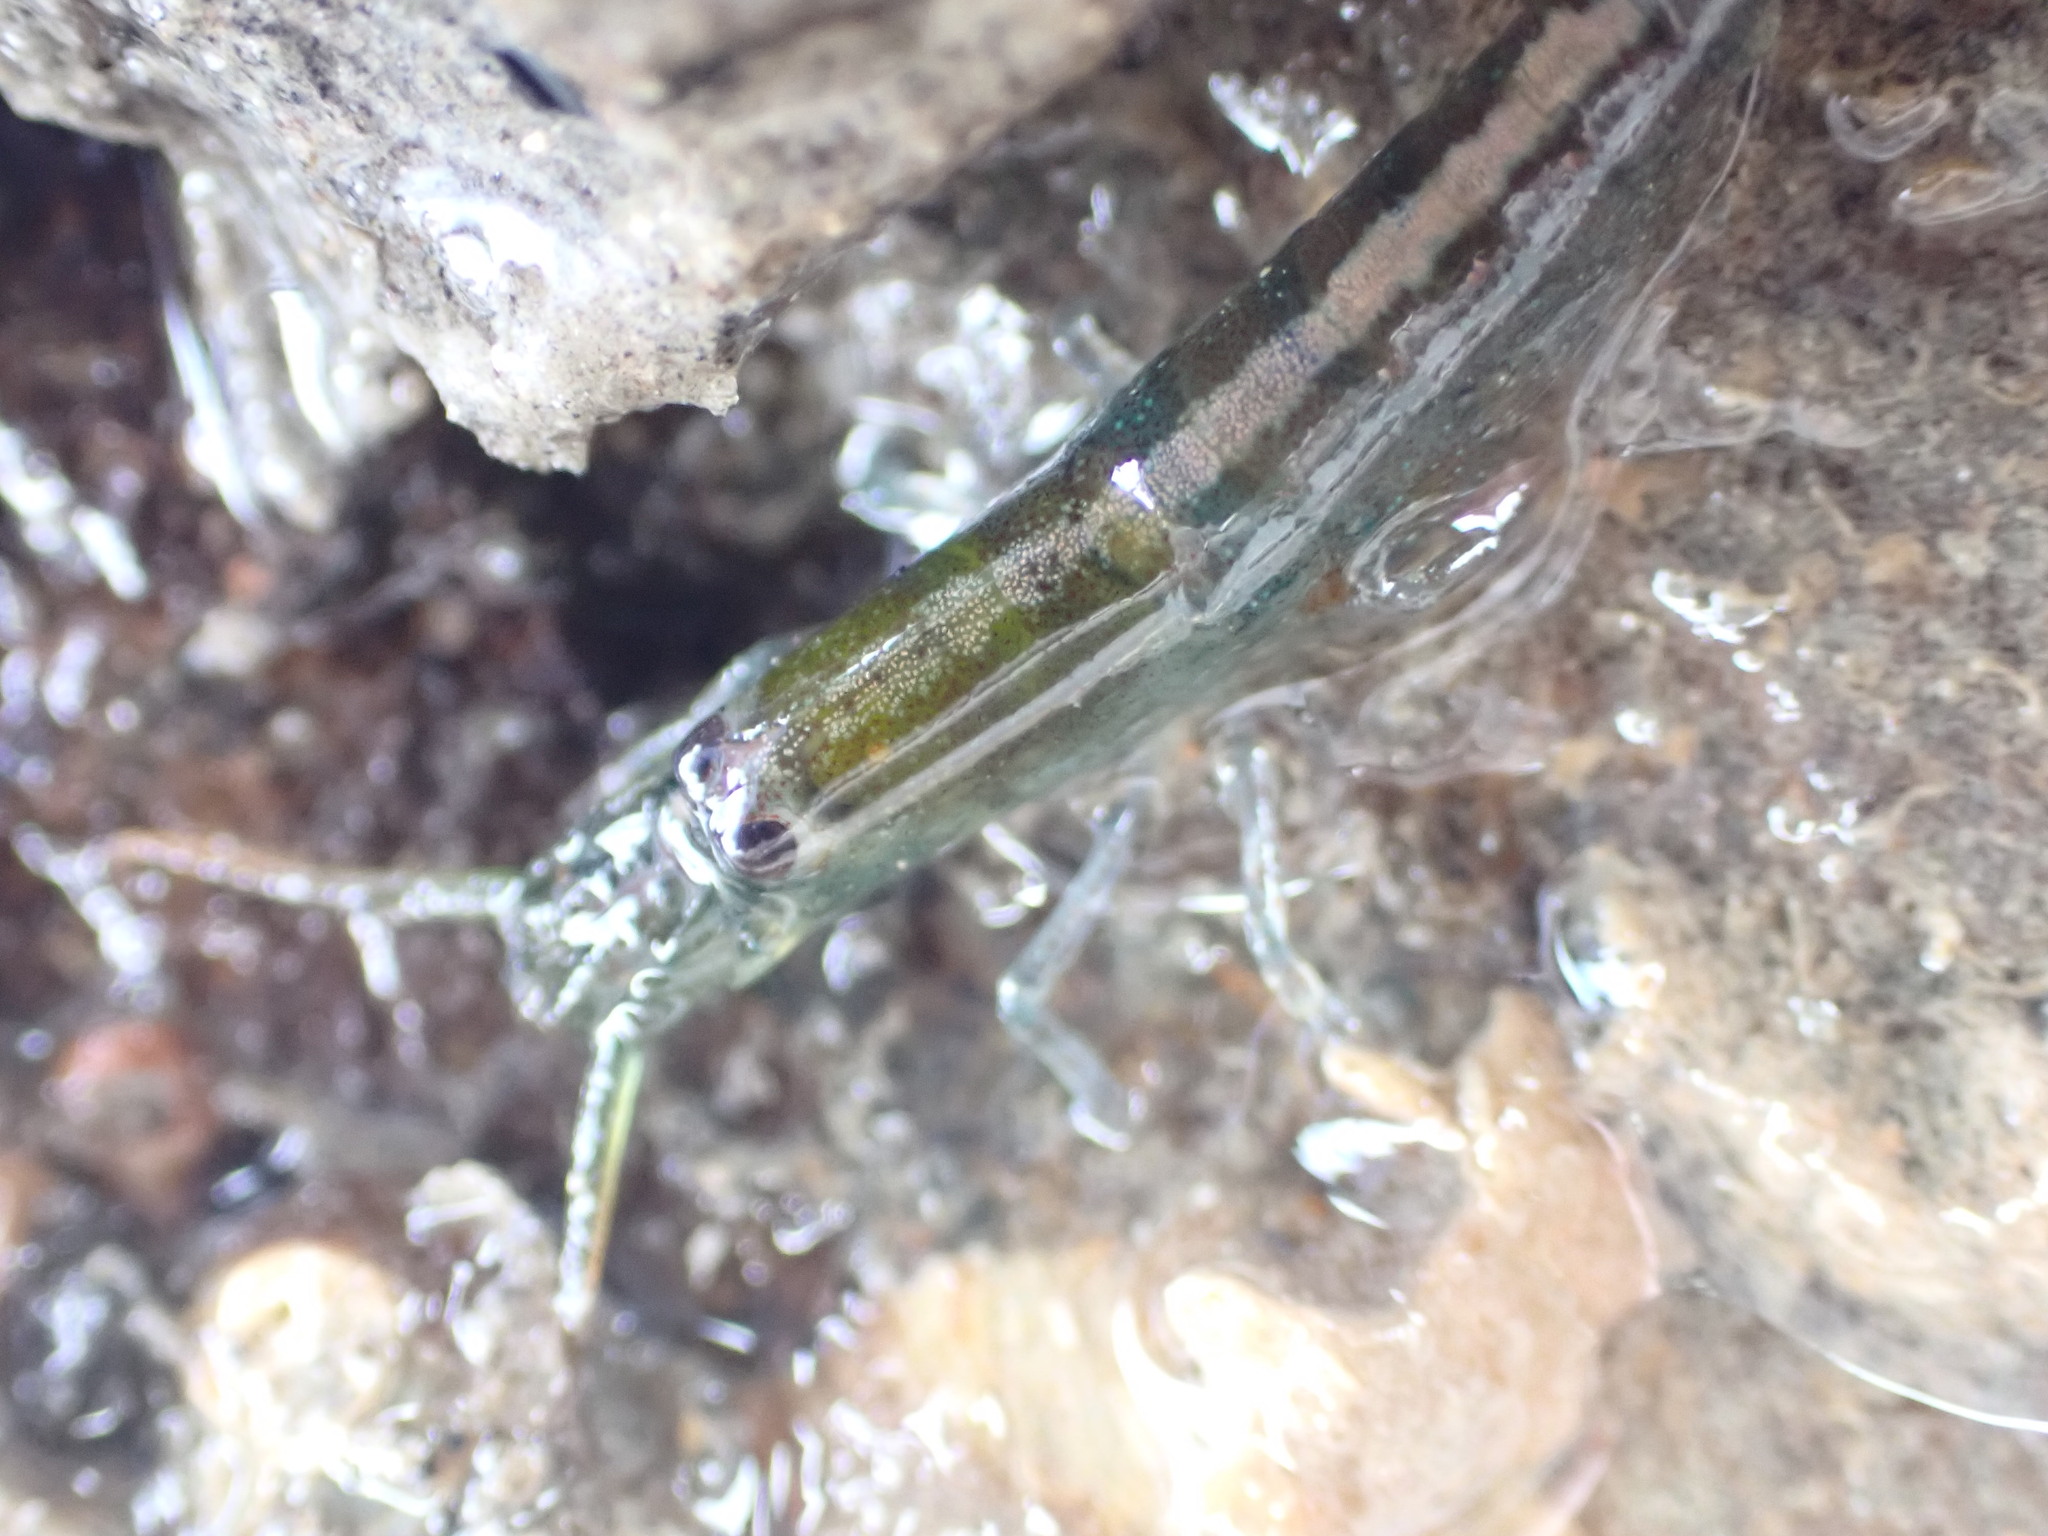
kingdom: Animalia
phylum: Arthropoda
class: Malacostraca
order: Decapoda
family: Alpheidae
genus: Betaeopsis
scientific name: Betaeopsis aequimanus
